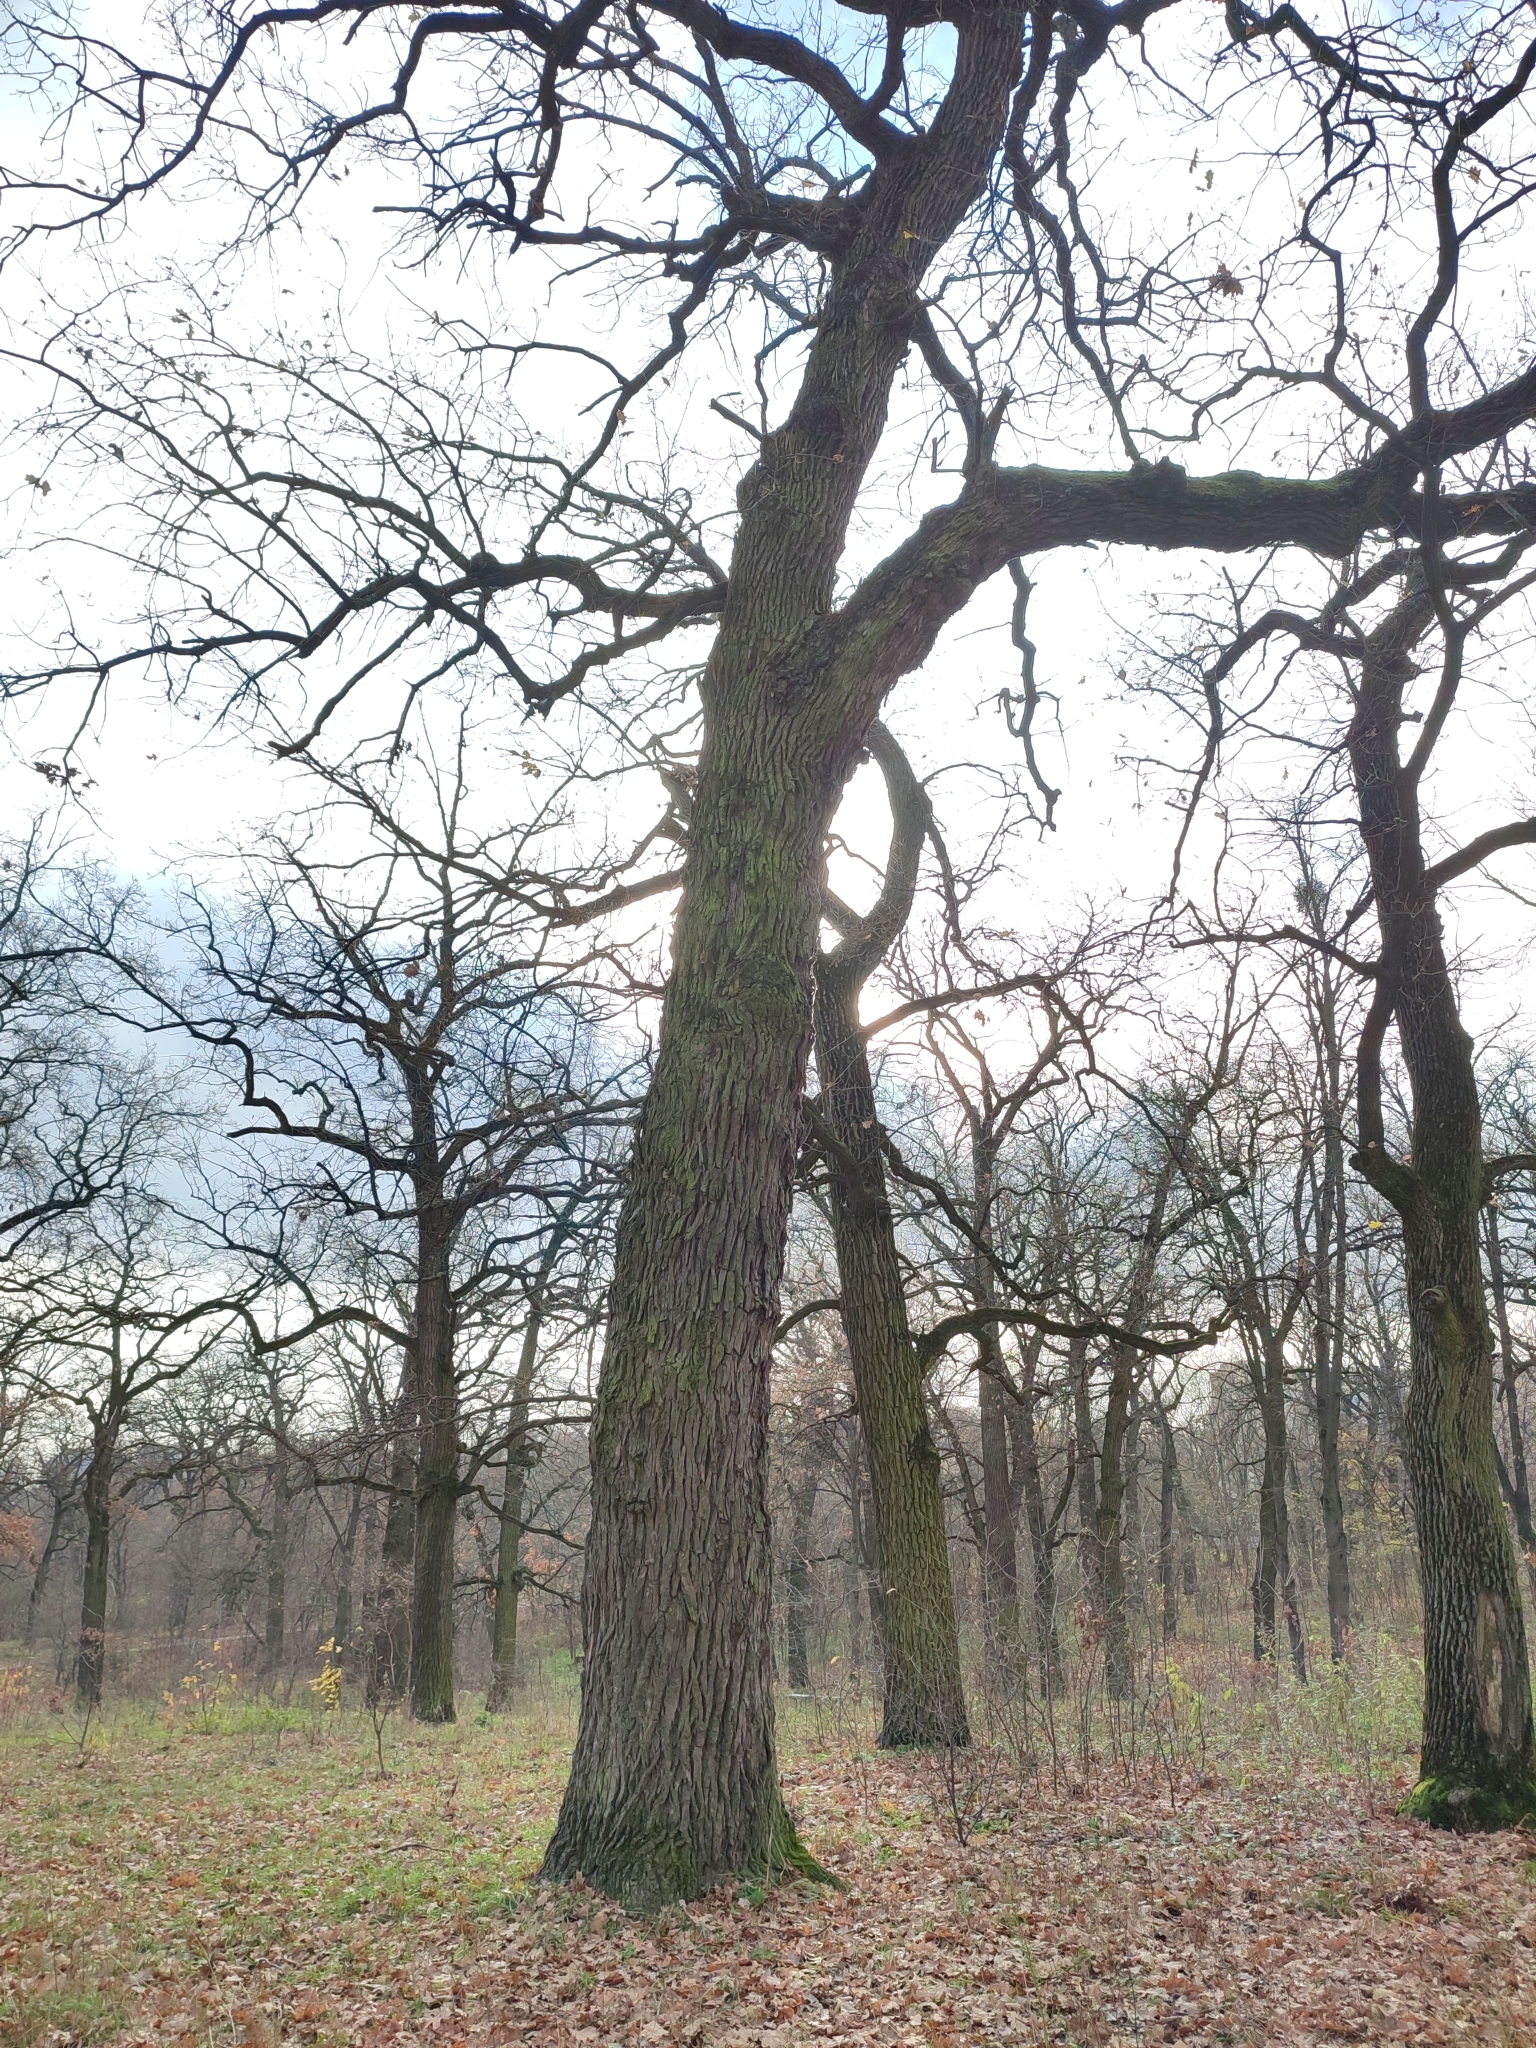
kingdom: Plantae
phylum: Tracheophyta
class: Magnoliopsida
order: Fagales
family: Fagaceae
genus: Quercus
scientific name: Quercus robur
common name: Pedunculate oak
